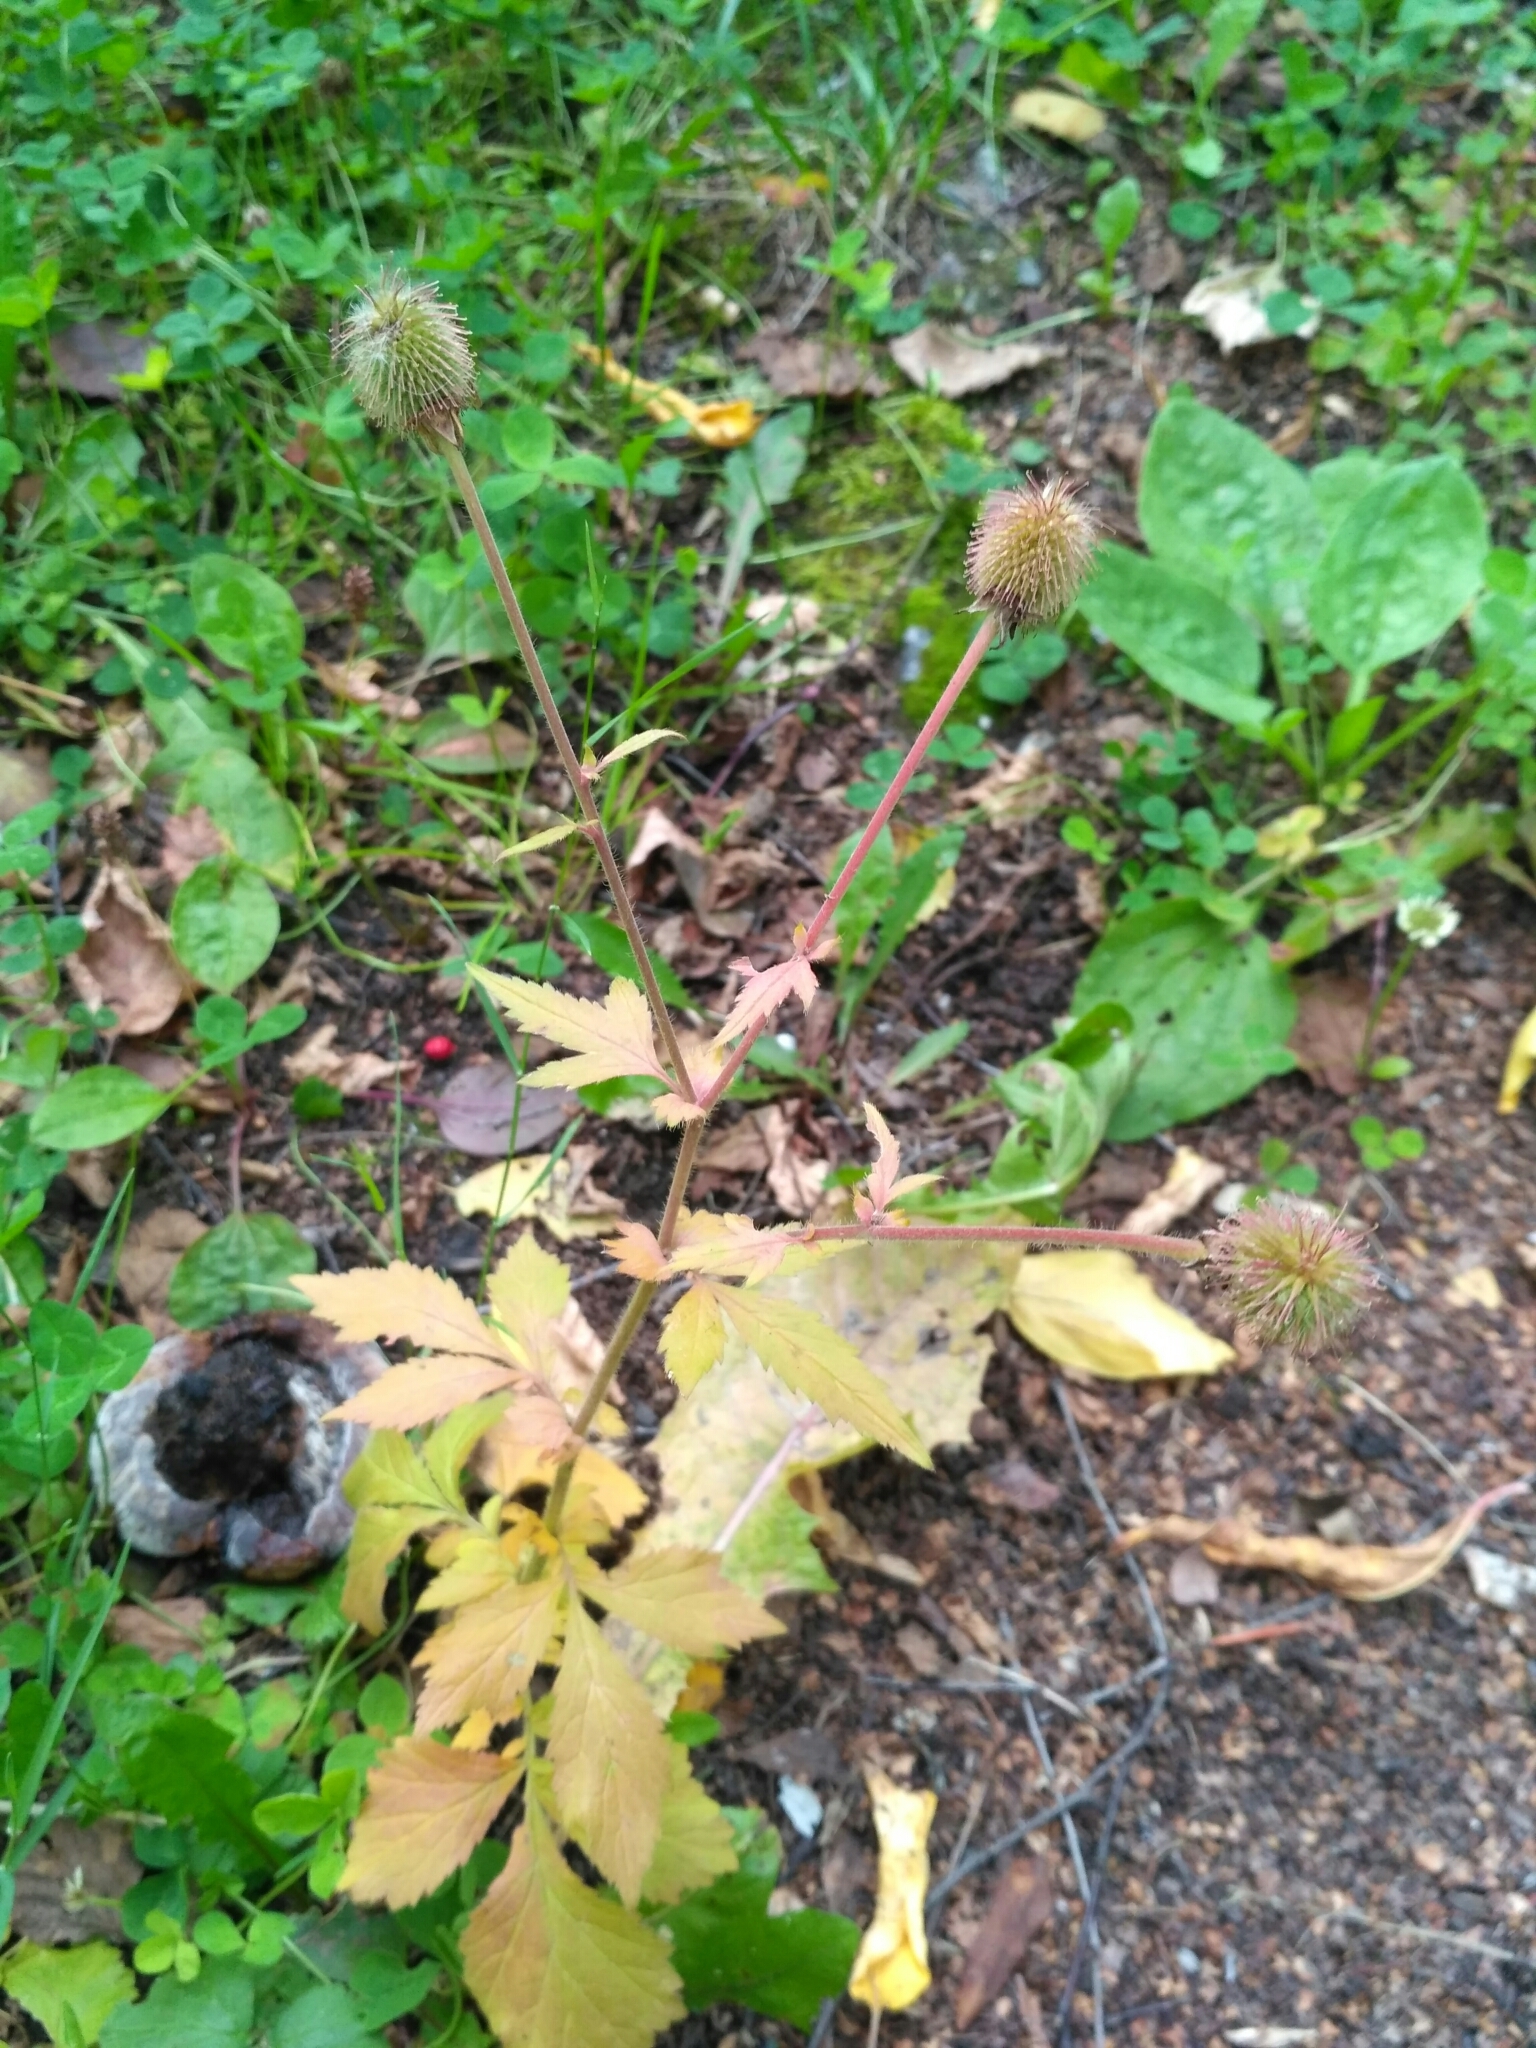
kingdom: Plantae
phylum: Tracheophyta
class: Magnoliopsida
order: Rosales
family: Rosaceae
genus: Geum
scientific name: Geum aleppicum
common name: Yellow avens
